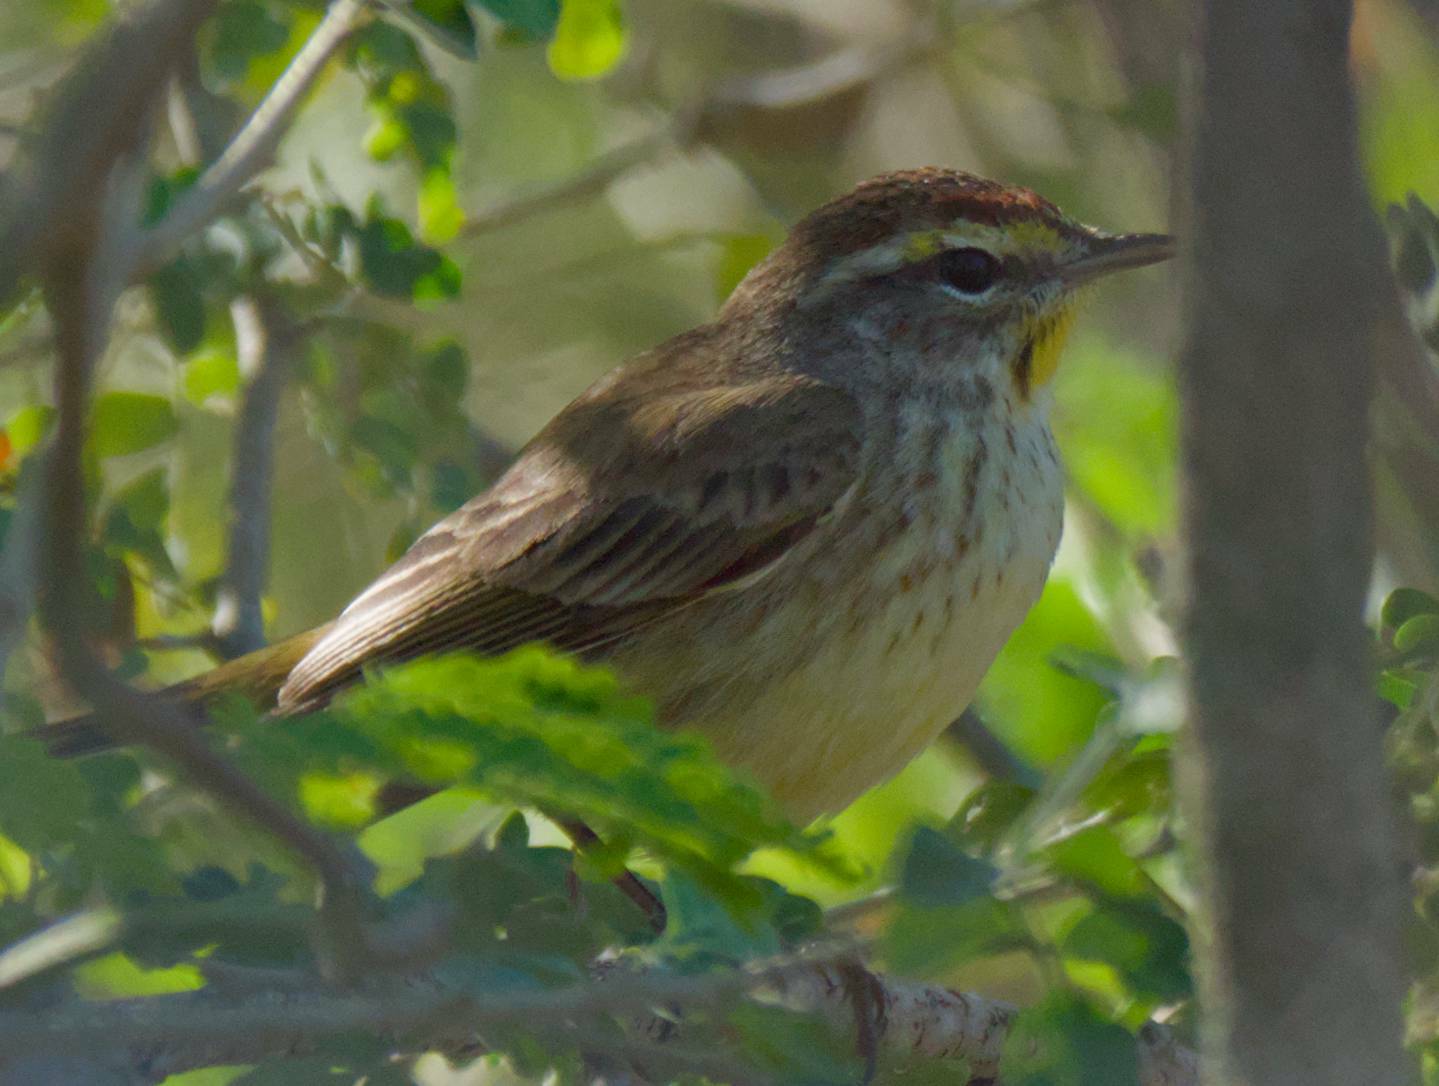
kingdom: Animalia
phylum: Chordata
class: Aves
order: Passeriformes
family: Parulidae
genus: Setophaga
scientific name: Setophaga palmarum
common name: Palm warbler
